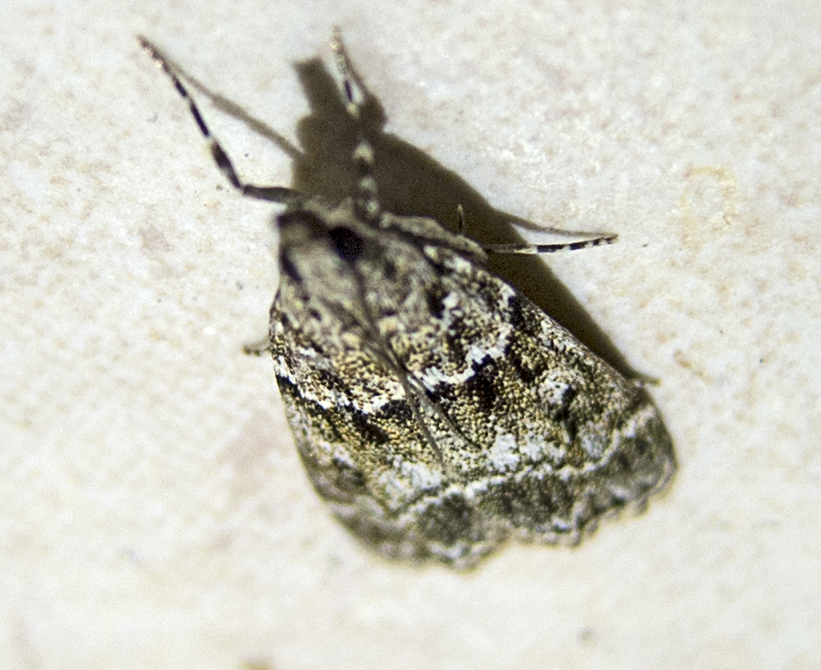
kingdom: Animalia
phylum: Arthropoda
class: Insecta
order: Lepidoptera
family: Crambidae
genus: Eudonia
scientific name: Eudonia mercurella
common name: Small grey
